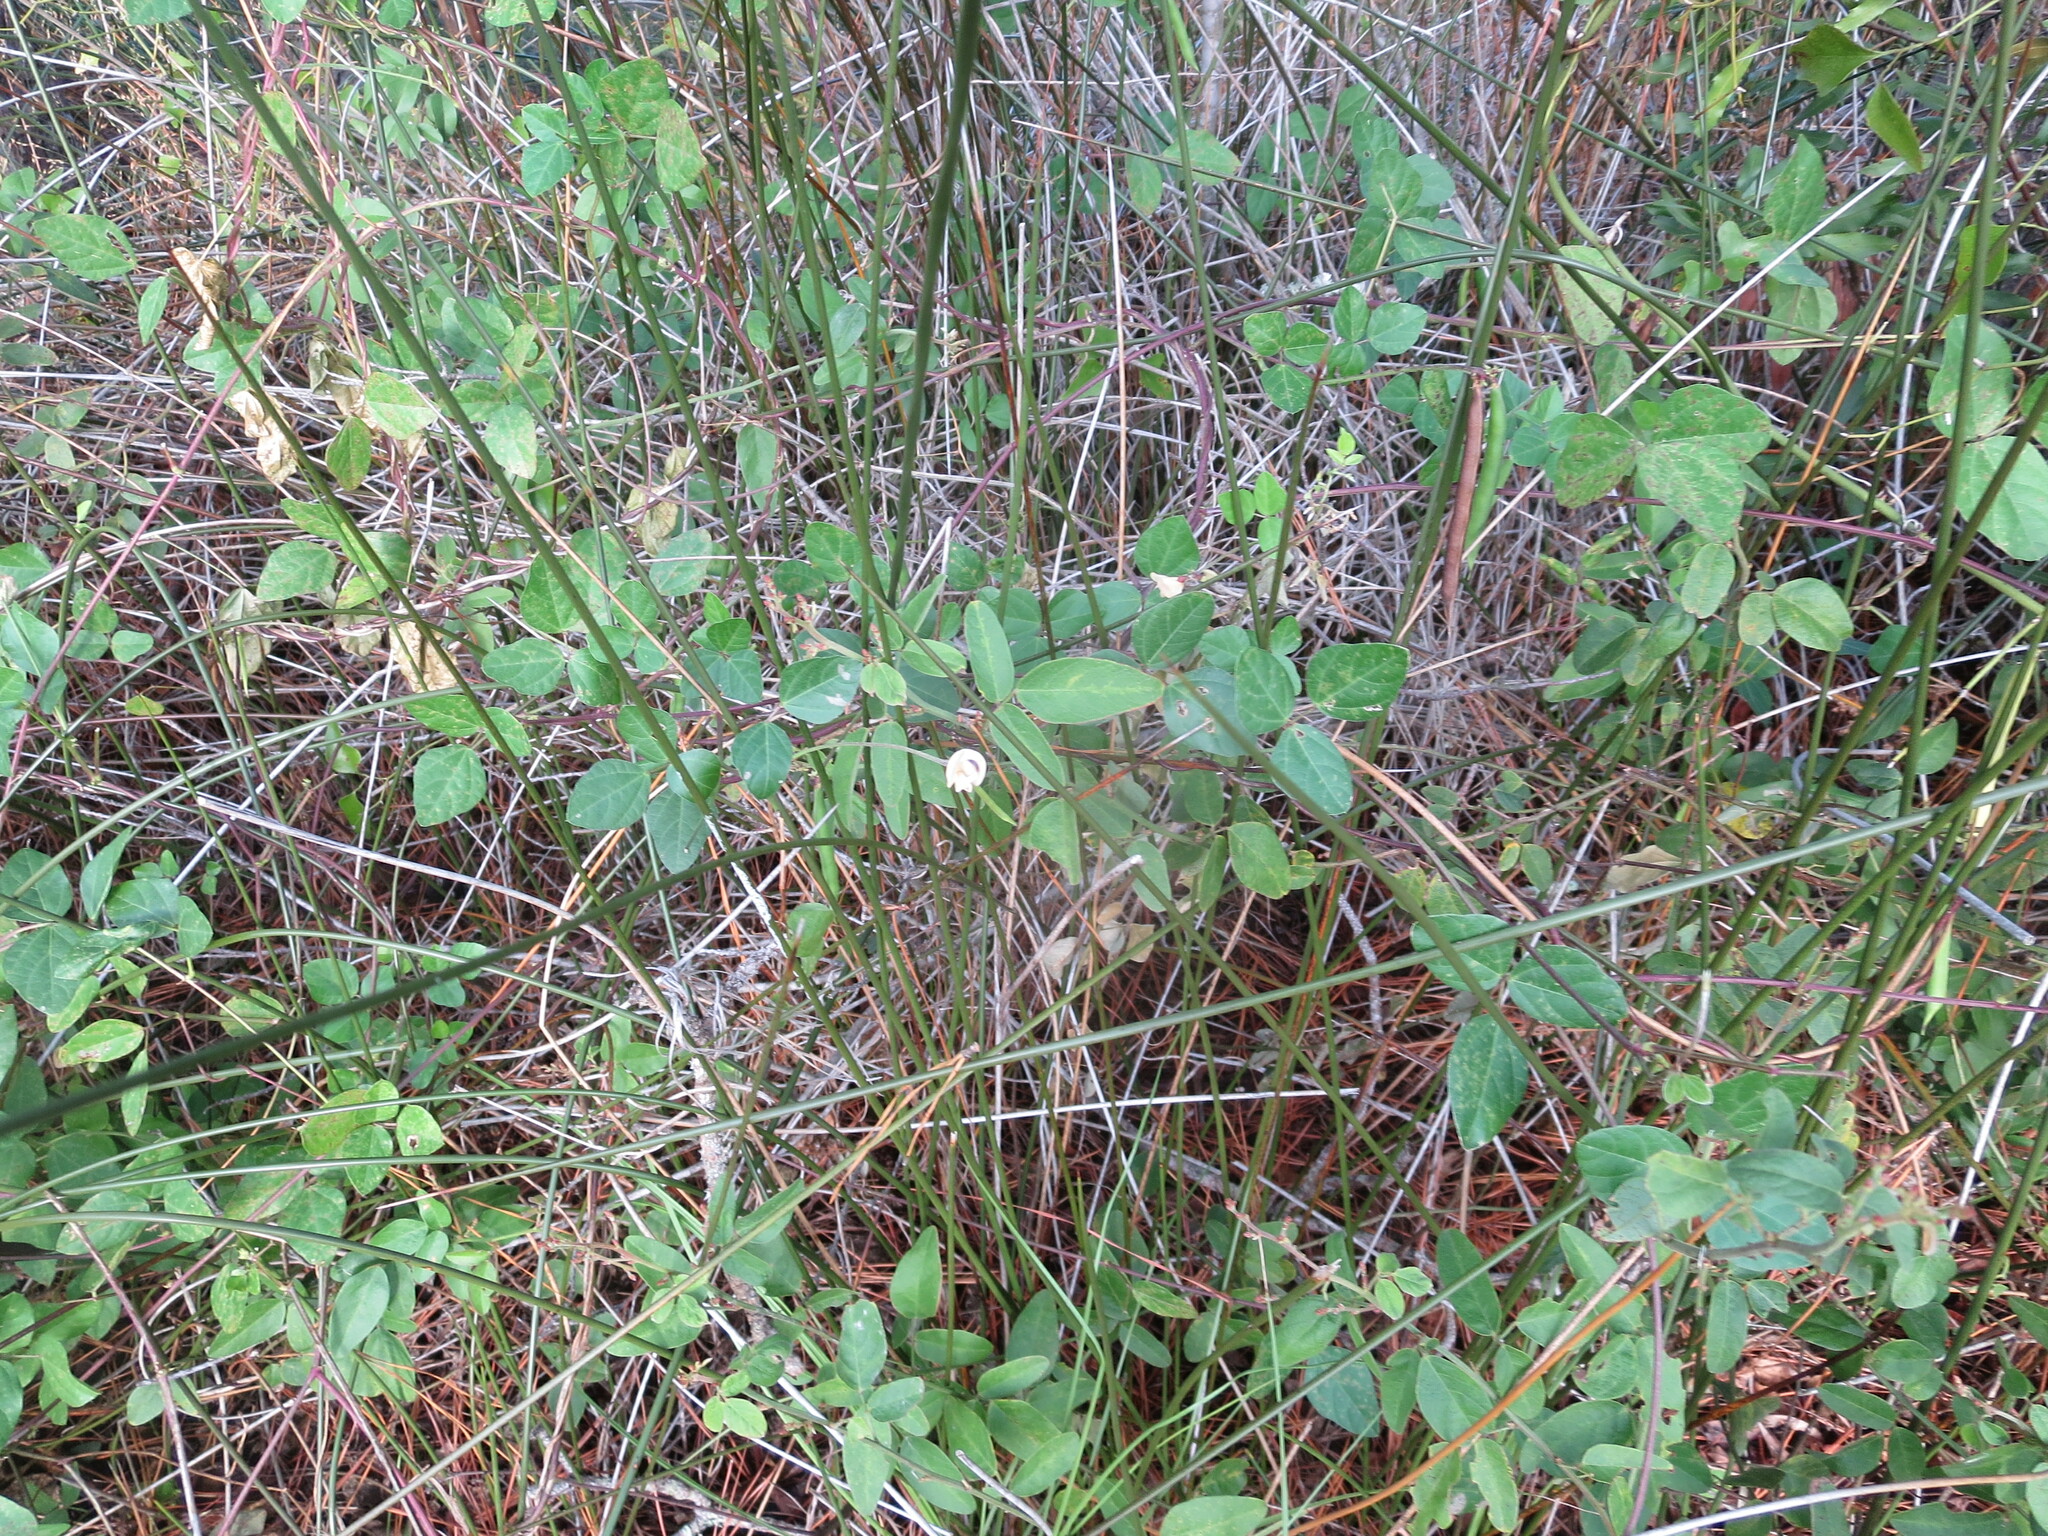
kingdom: Plantae
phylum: Tracheophyta
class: Magnoliopsida
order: Fabales
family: Fabaceae
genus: Strophostyles
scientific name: Strophostyles helvola
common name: Trailing wild bean
